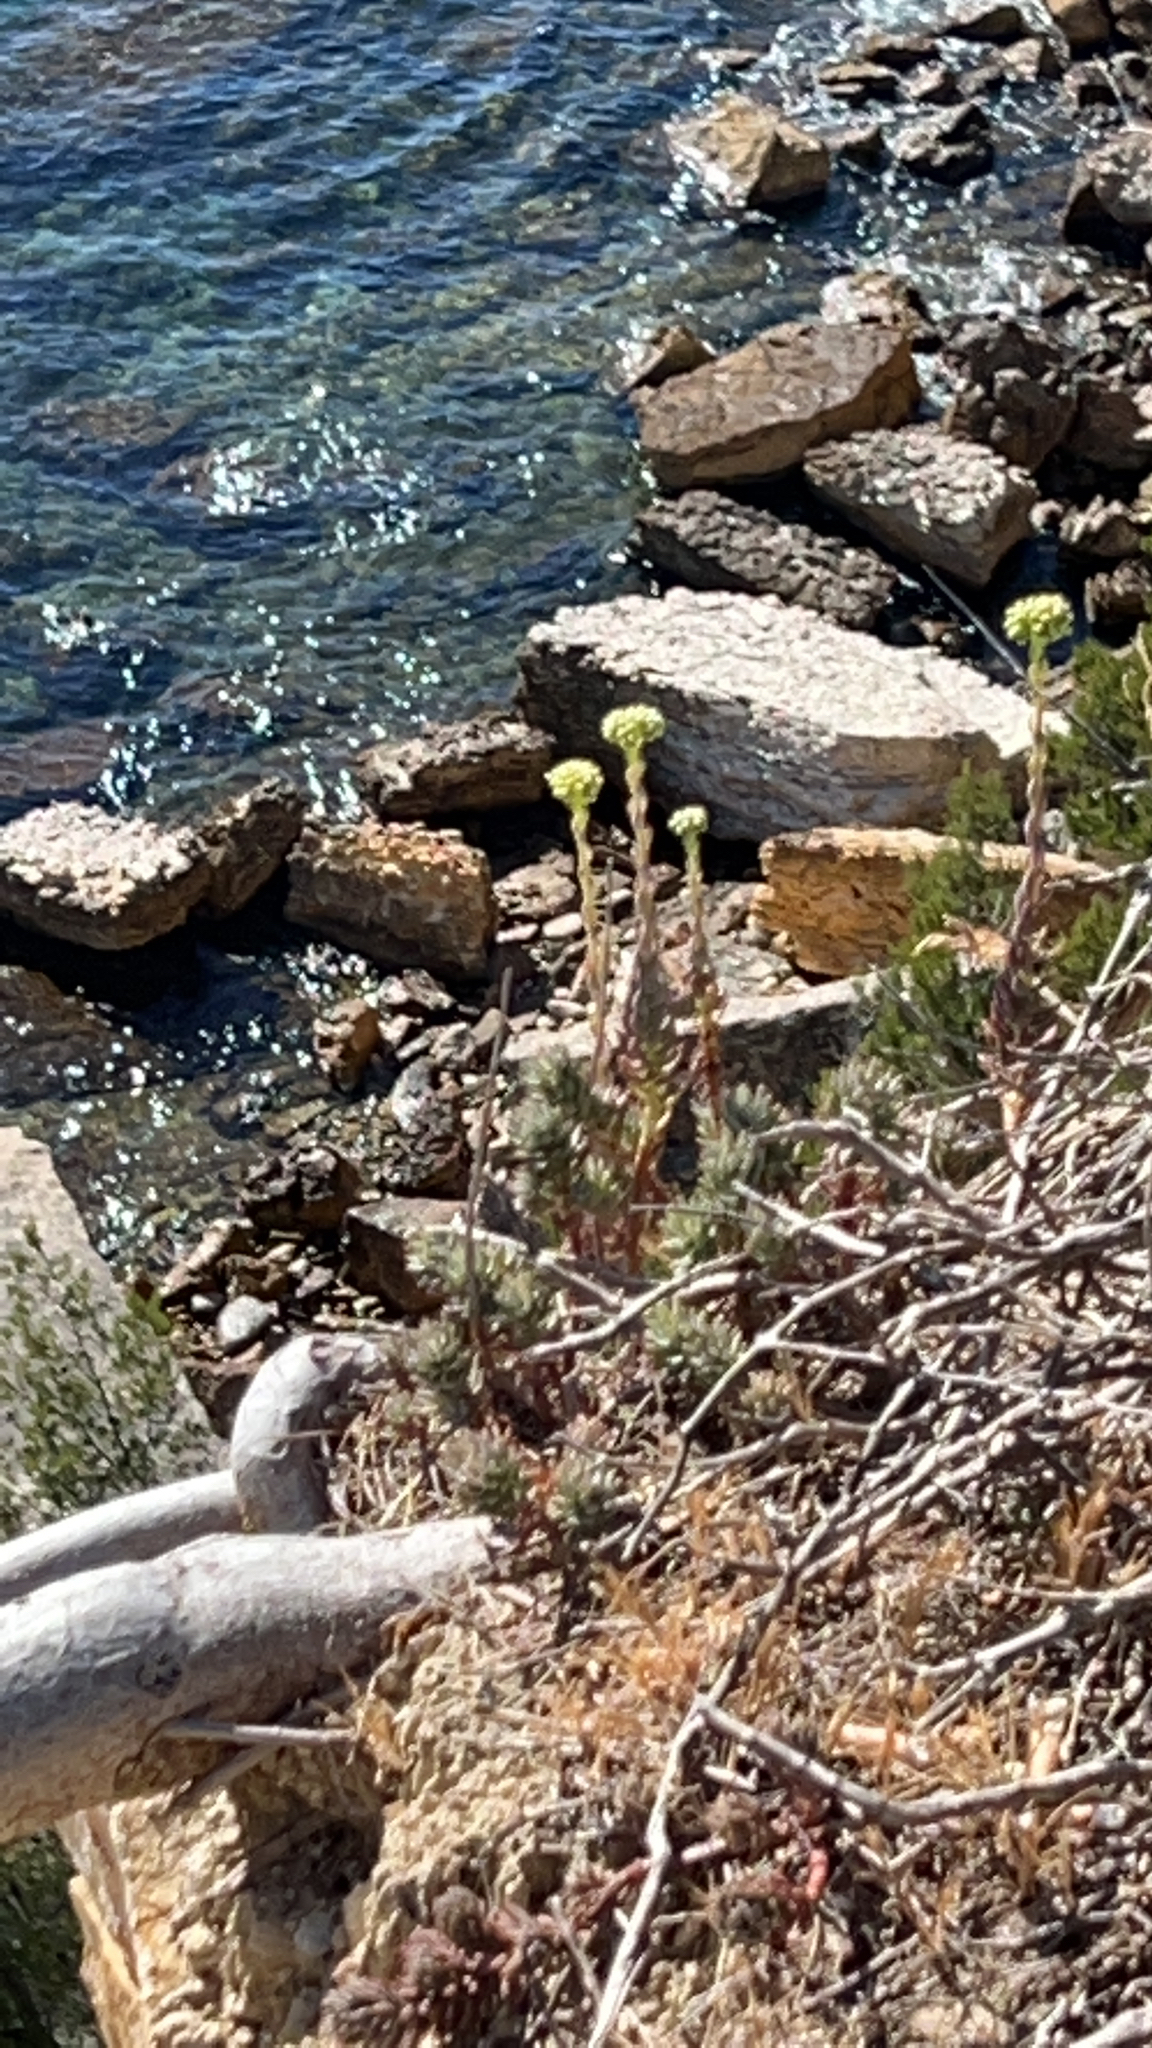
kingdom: Plantae
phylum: Tracheophyta
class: Magnoliopsida
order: Saxifragales
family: Crassulaceae
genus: Petrosedum
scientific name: Petrosedum sediforme
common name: Pale stonecrop
